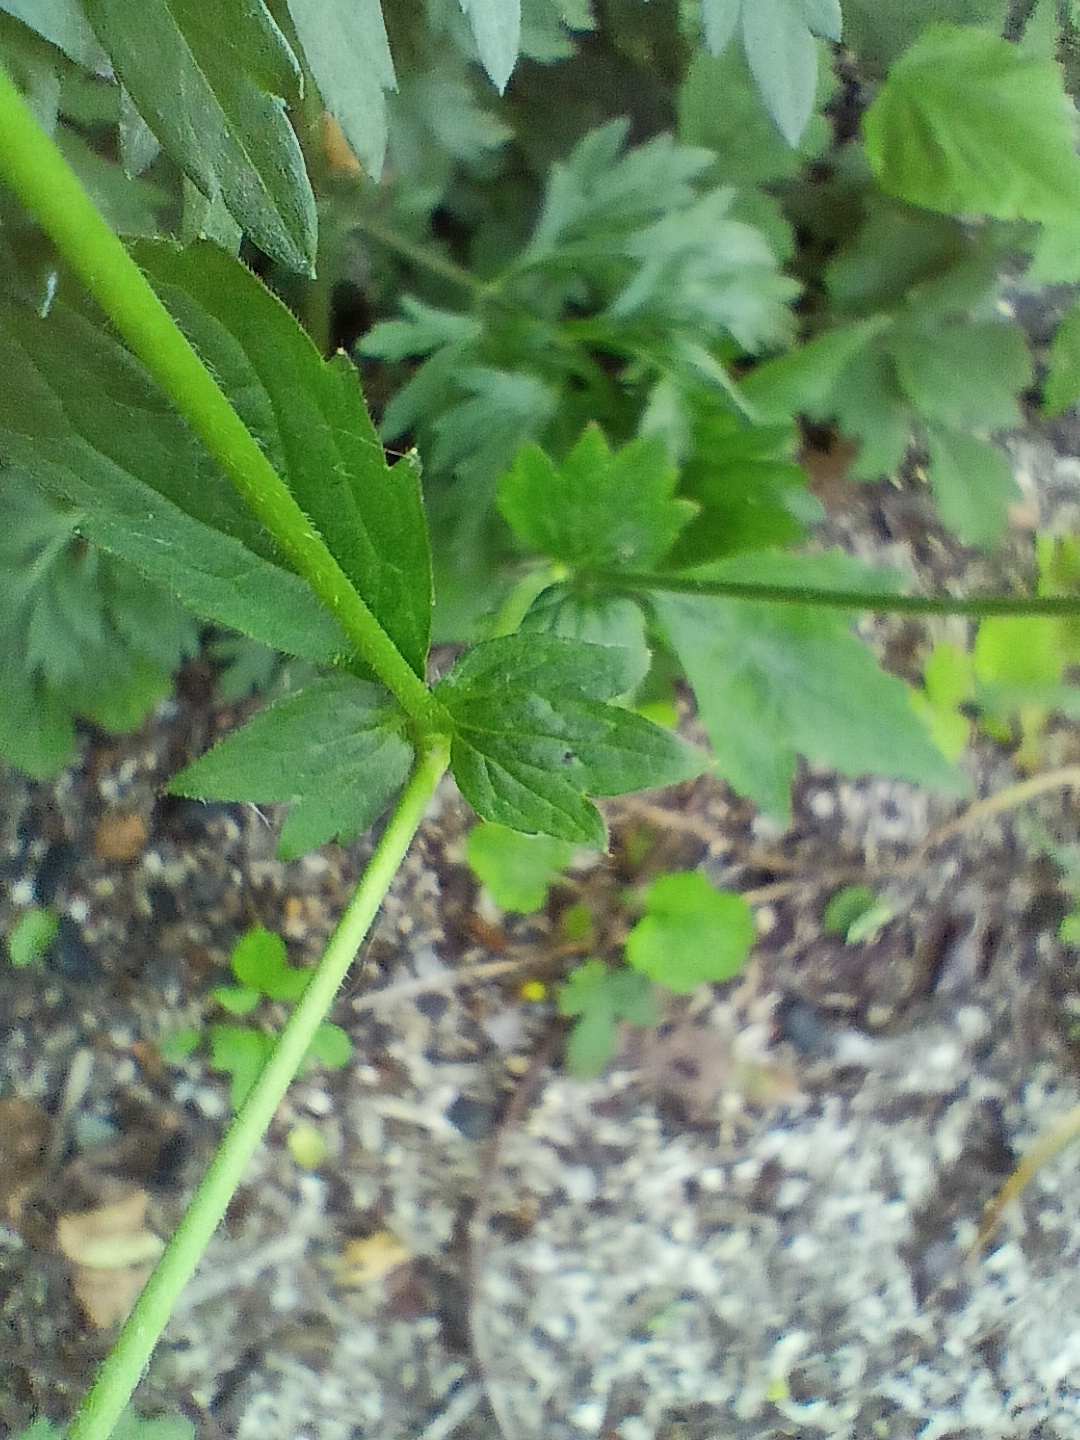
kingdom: Plantae
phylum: Tracheophyta
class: Magnoliopsida
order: Rosales
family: Rosaceae
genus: Geum
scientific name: Geum urbanum
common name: Wood avens
